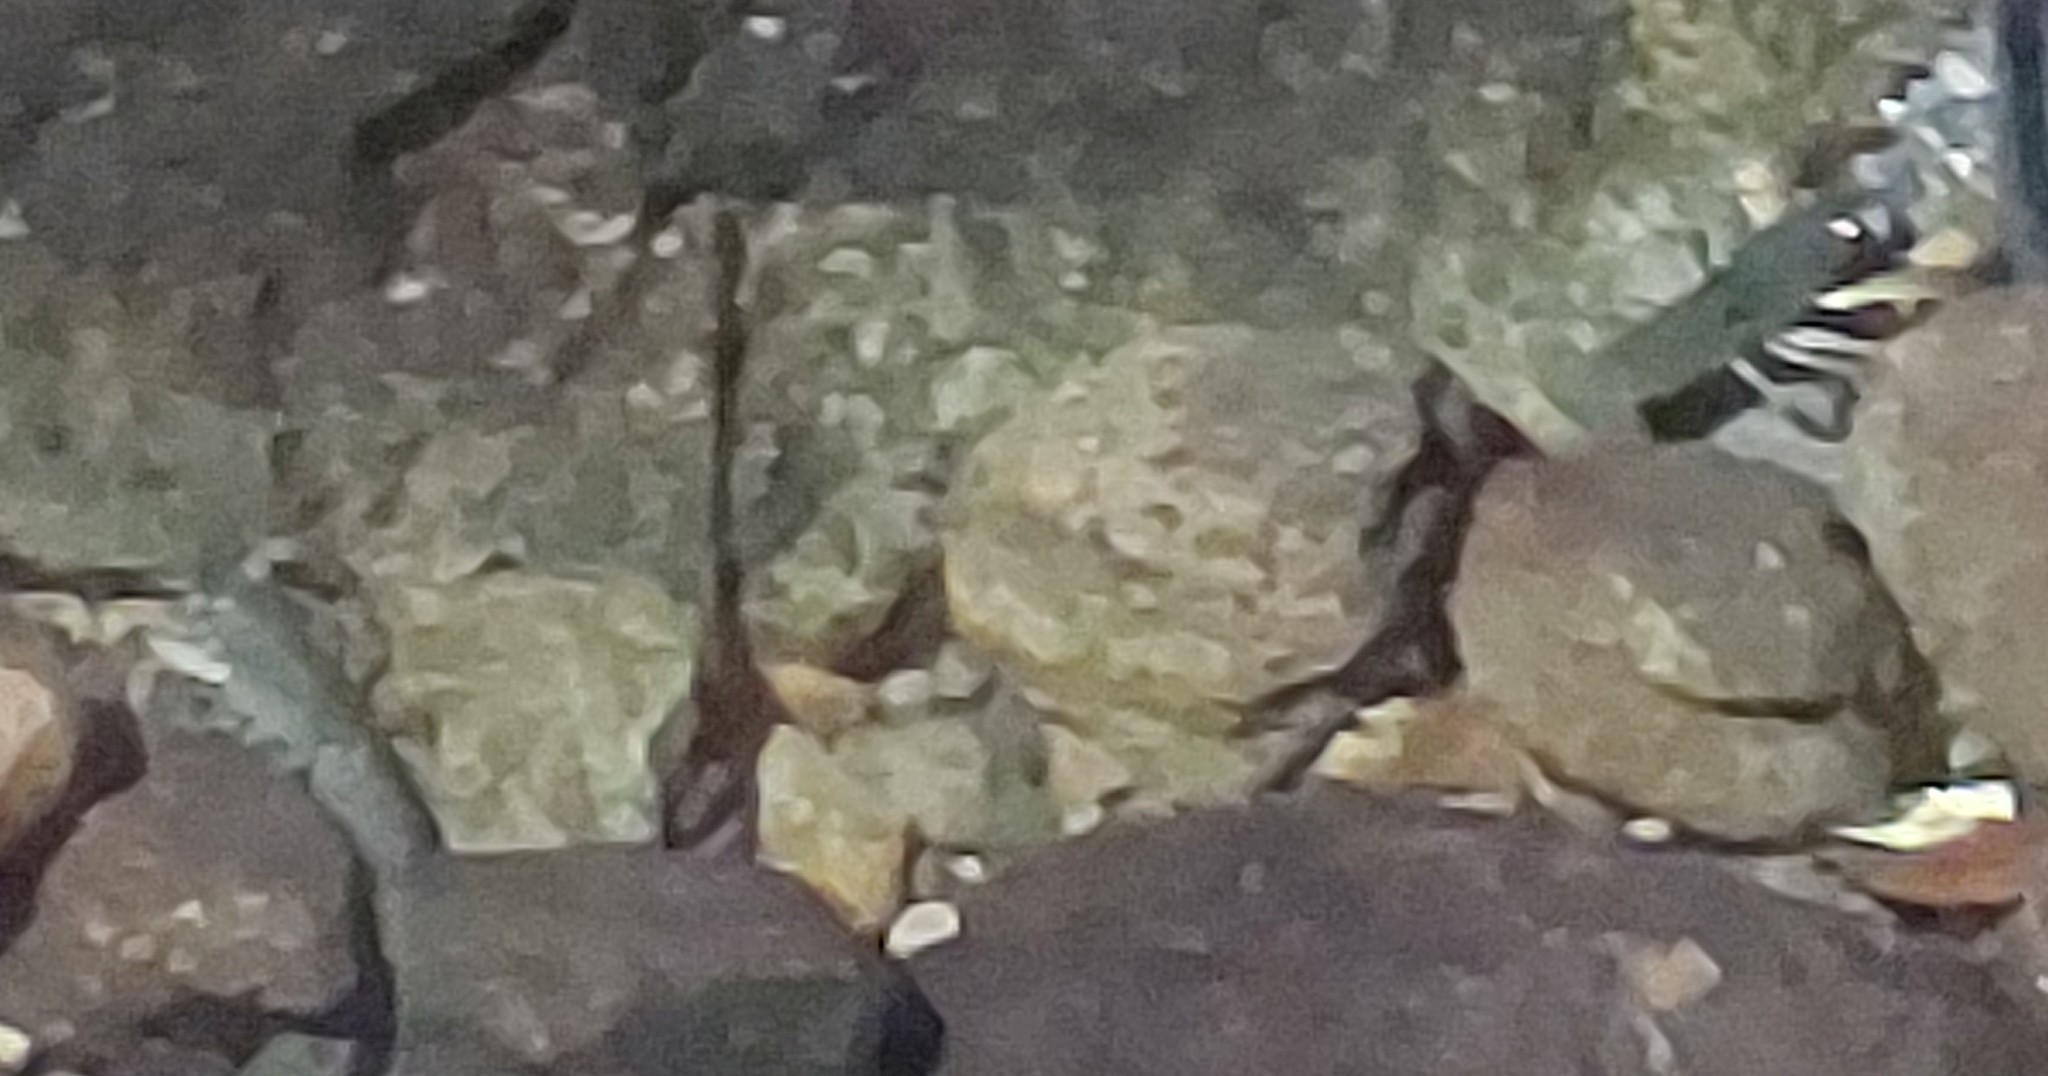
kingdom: Animalia
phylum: Arthropoda
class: Malacostraca
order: Decapoda
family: Parastacidae
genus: Paranephrops
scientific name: Paranephrops planifrons
